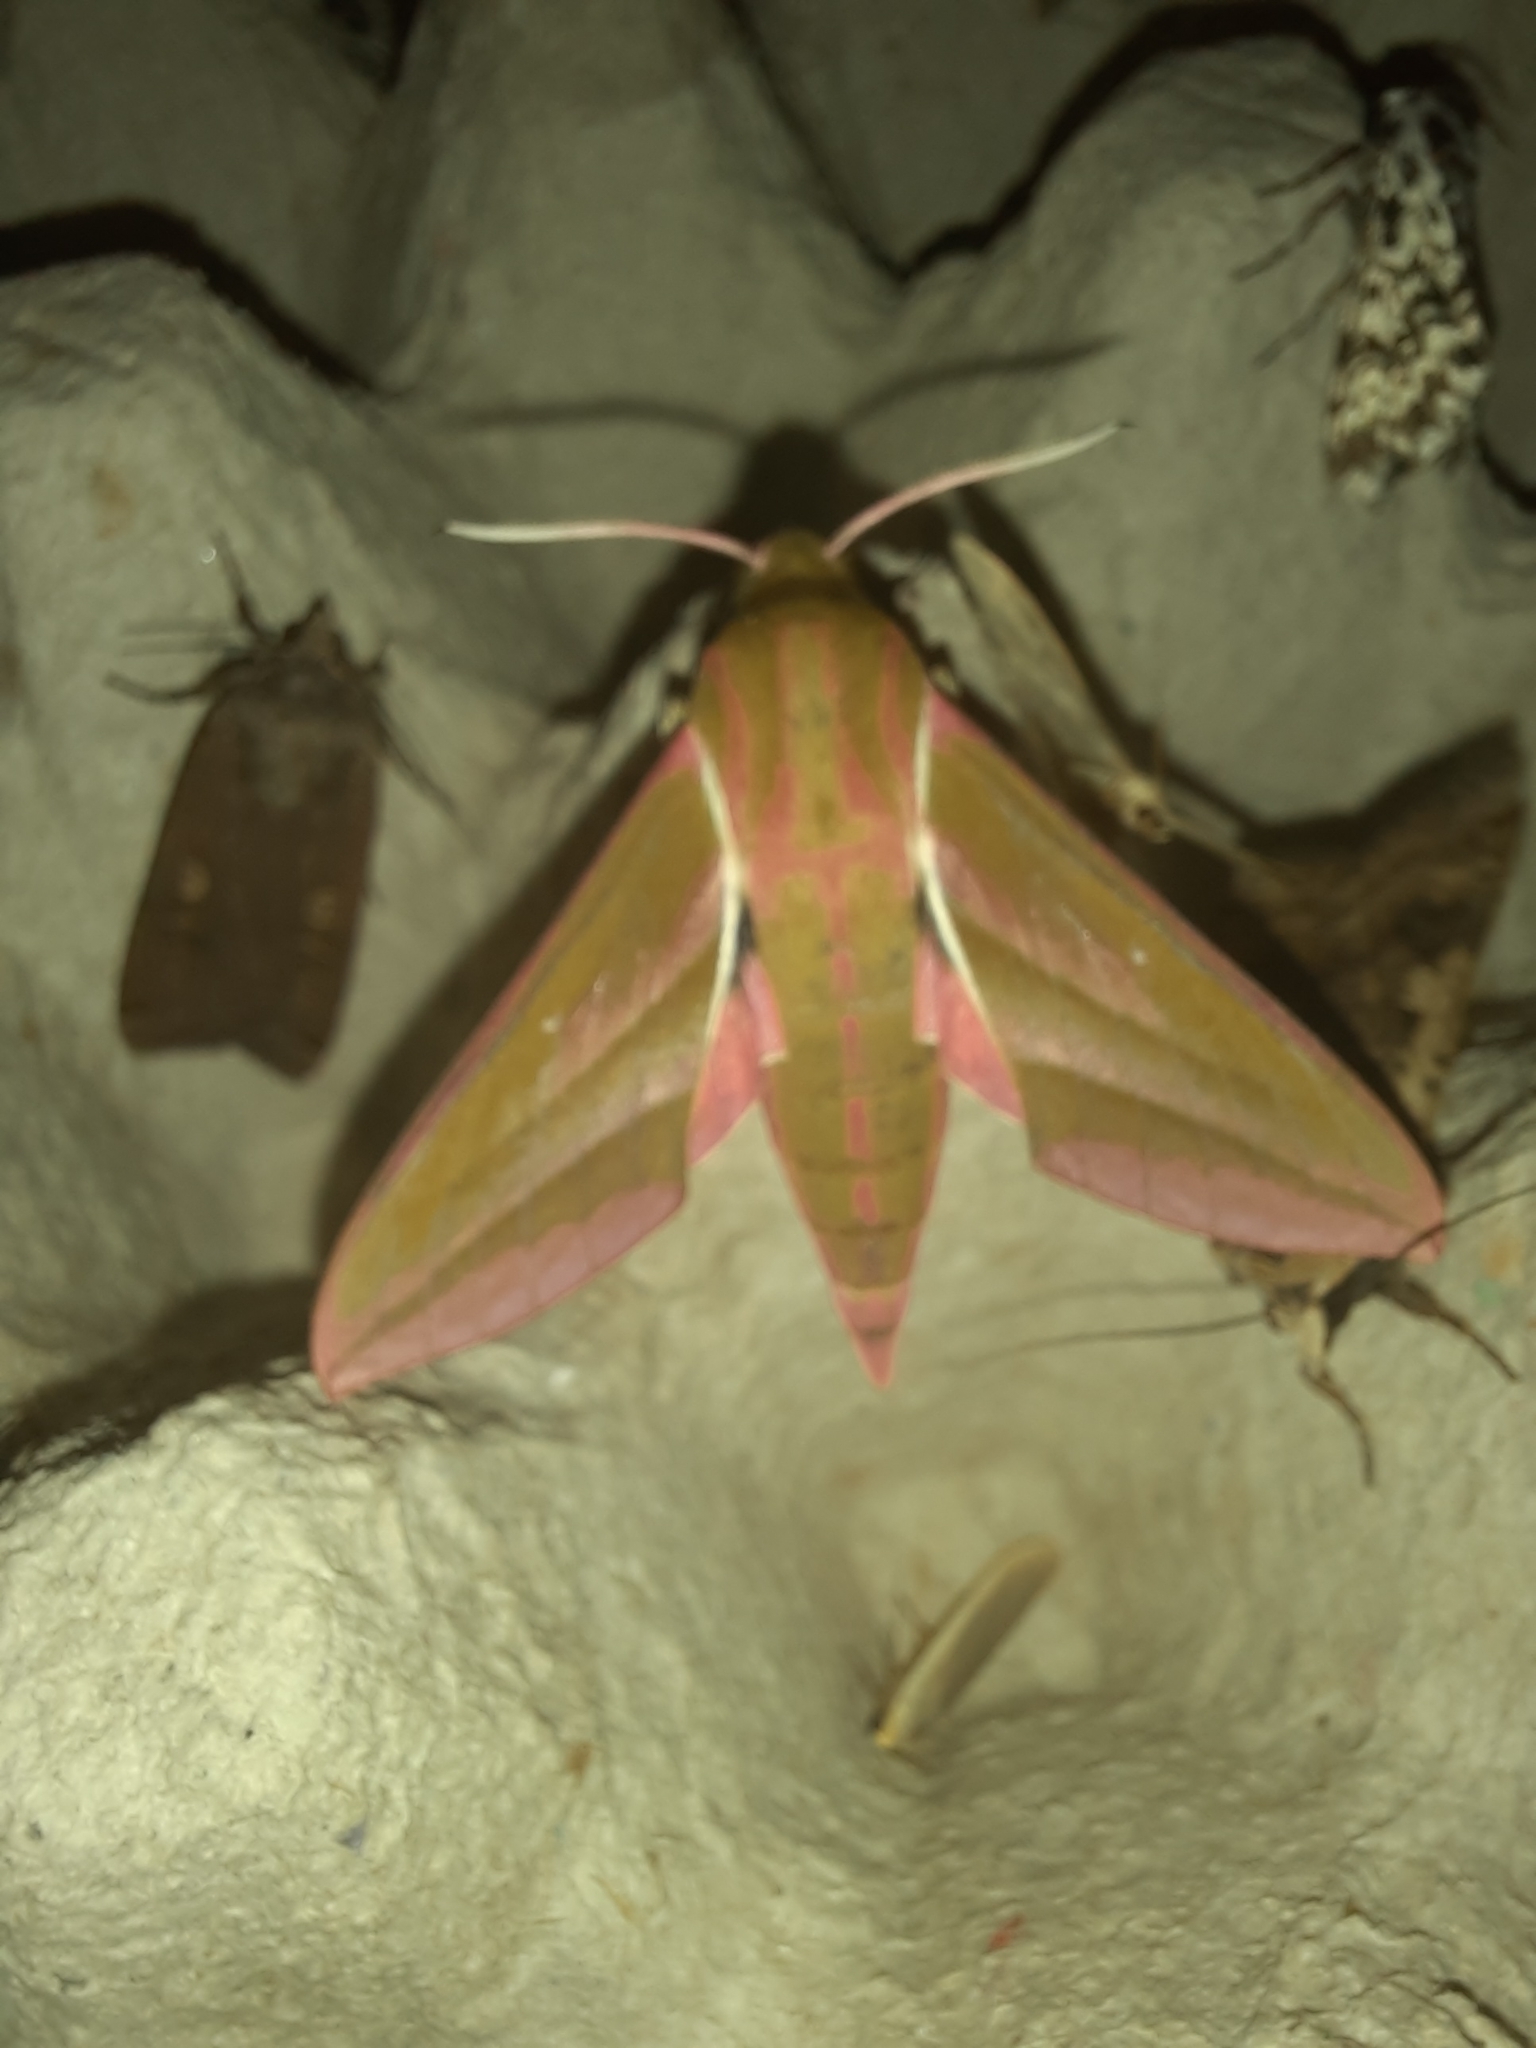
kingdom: Animalia
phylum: Arthropoda
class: Insecta
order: Lepidoptera
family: Sphingidae
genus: Deilephila
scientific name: Deilephila elpenor
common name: Elephant hawk-moth
